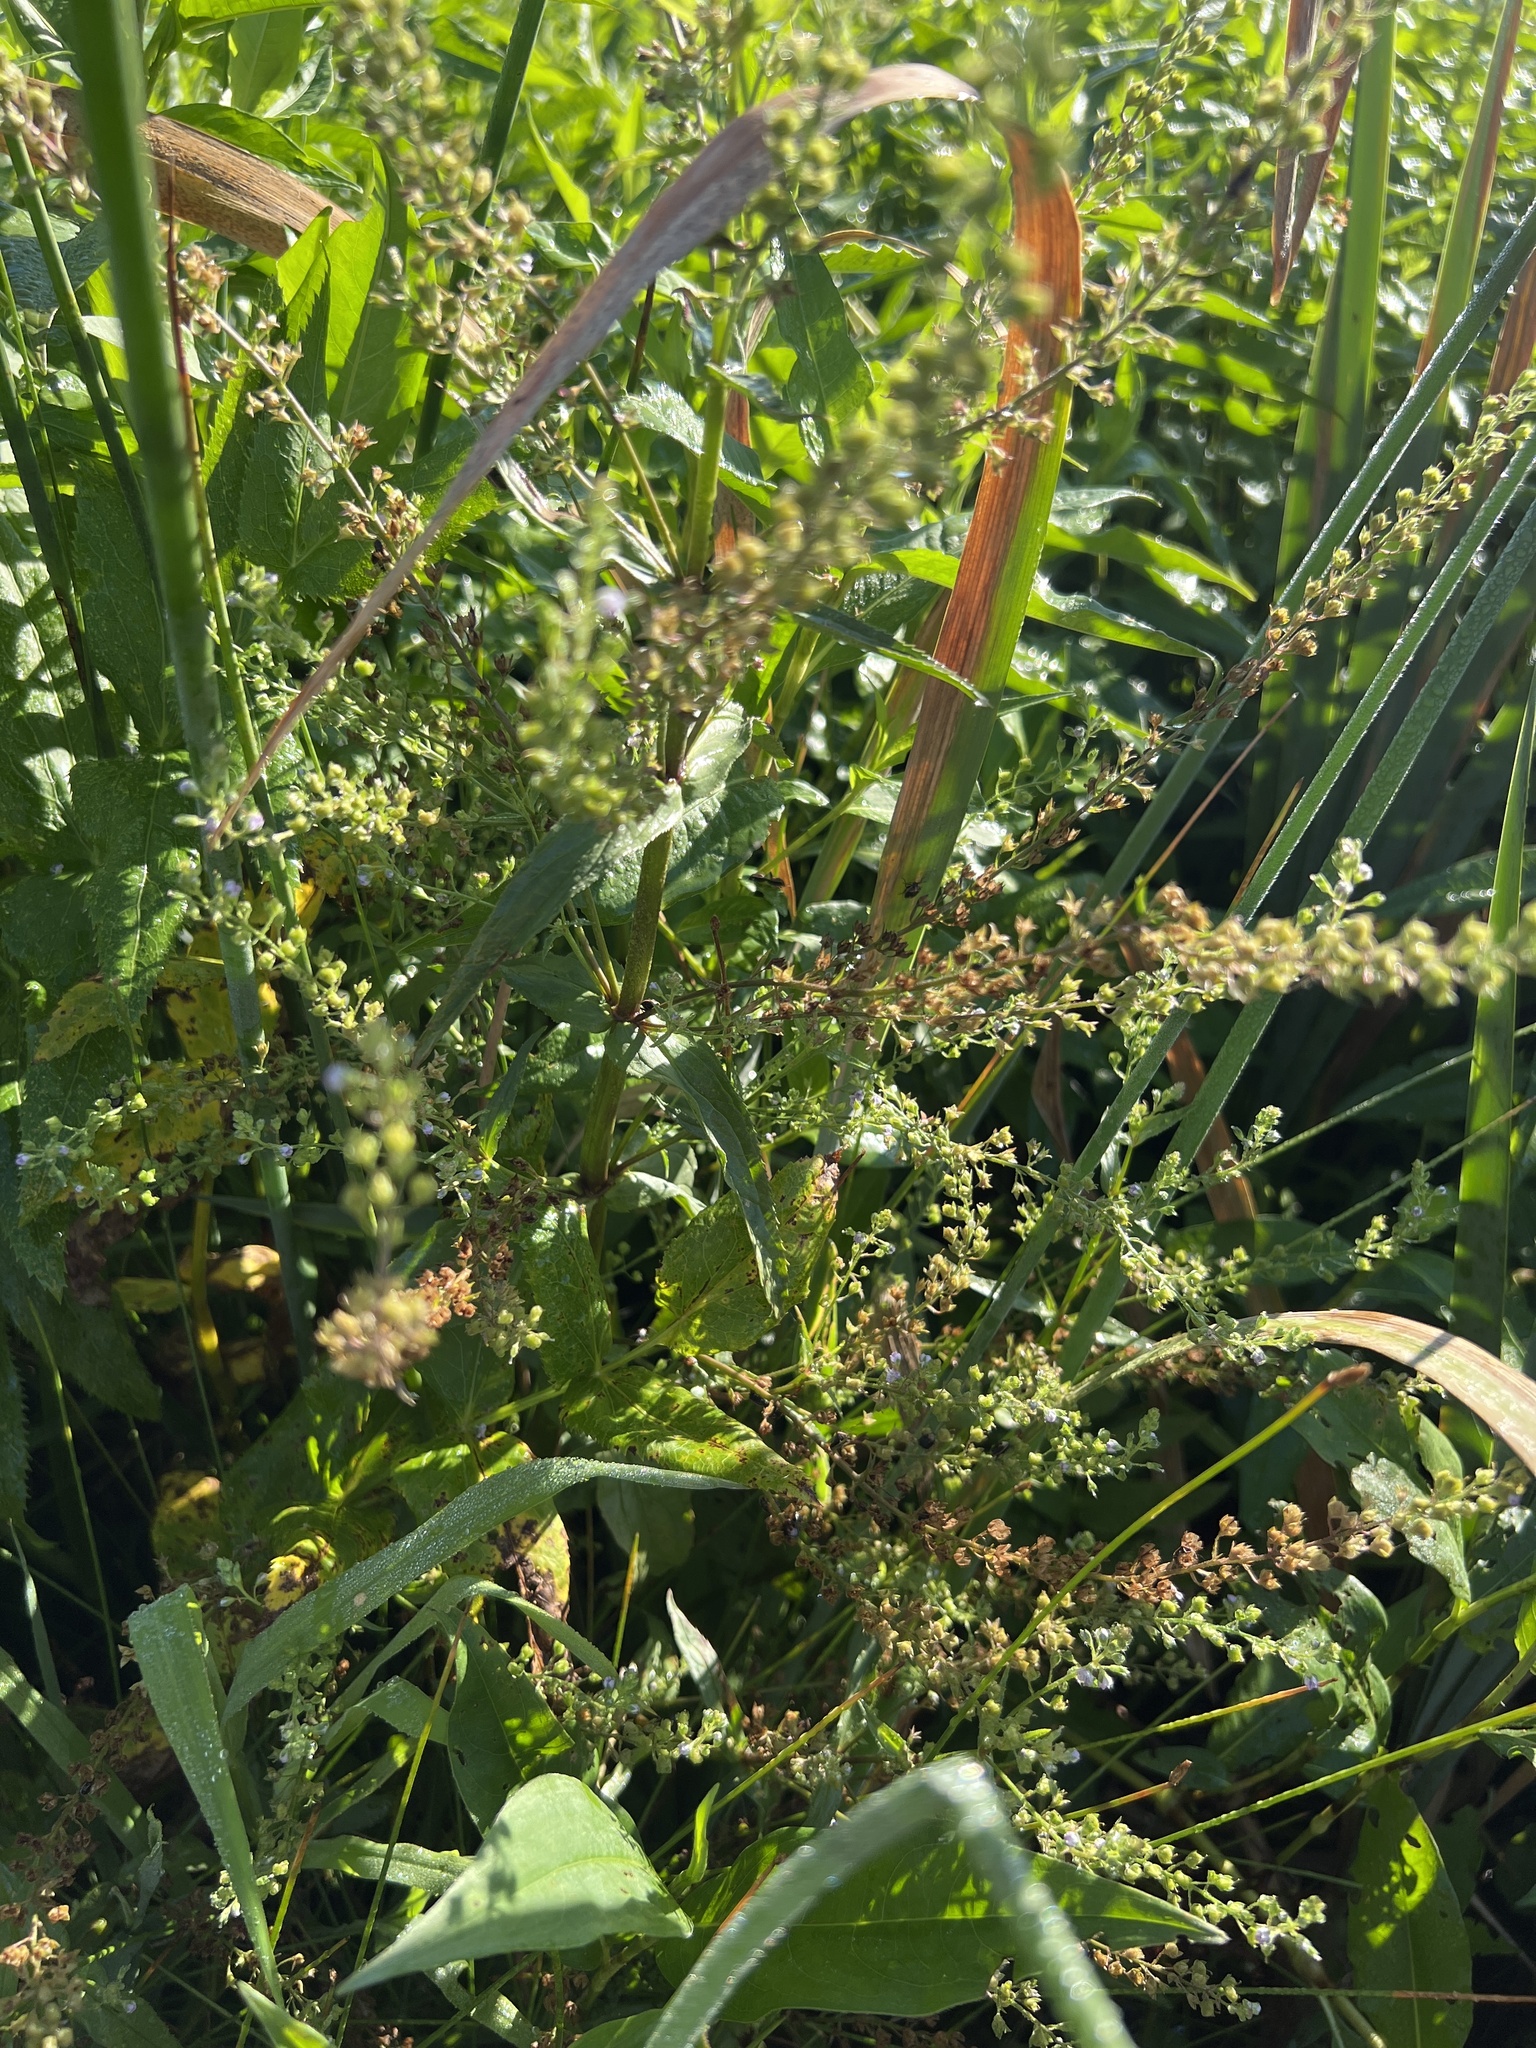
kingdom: Plantae
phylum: Tracheophyta
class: Magnoliopsida
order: Lamiales
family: Plantaginaceae
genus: Veronica
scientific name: Veronica anagallis-aquatica
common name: Water speedwell
